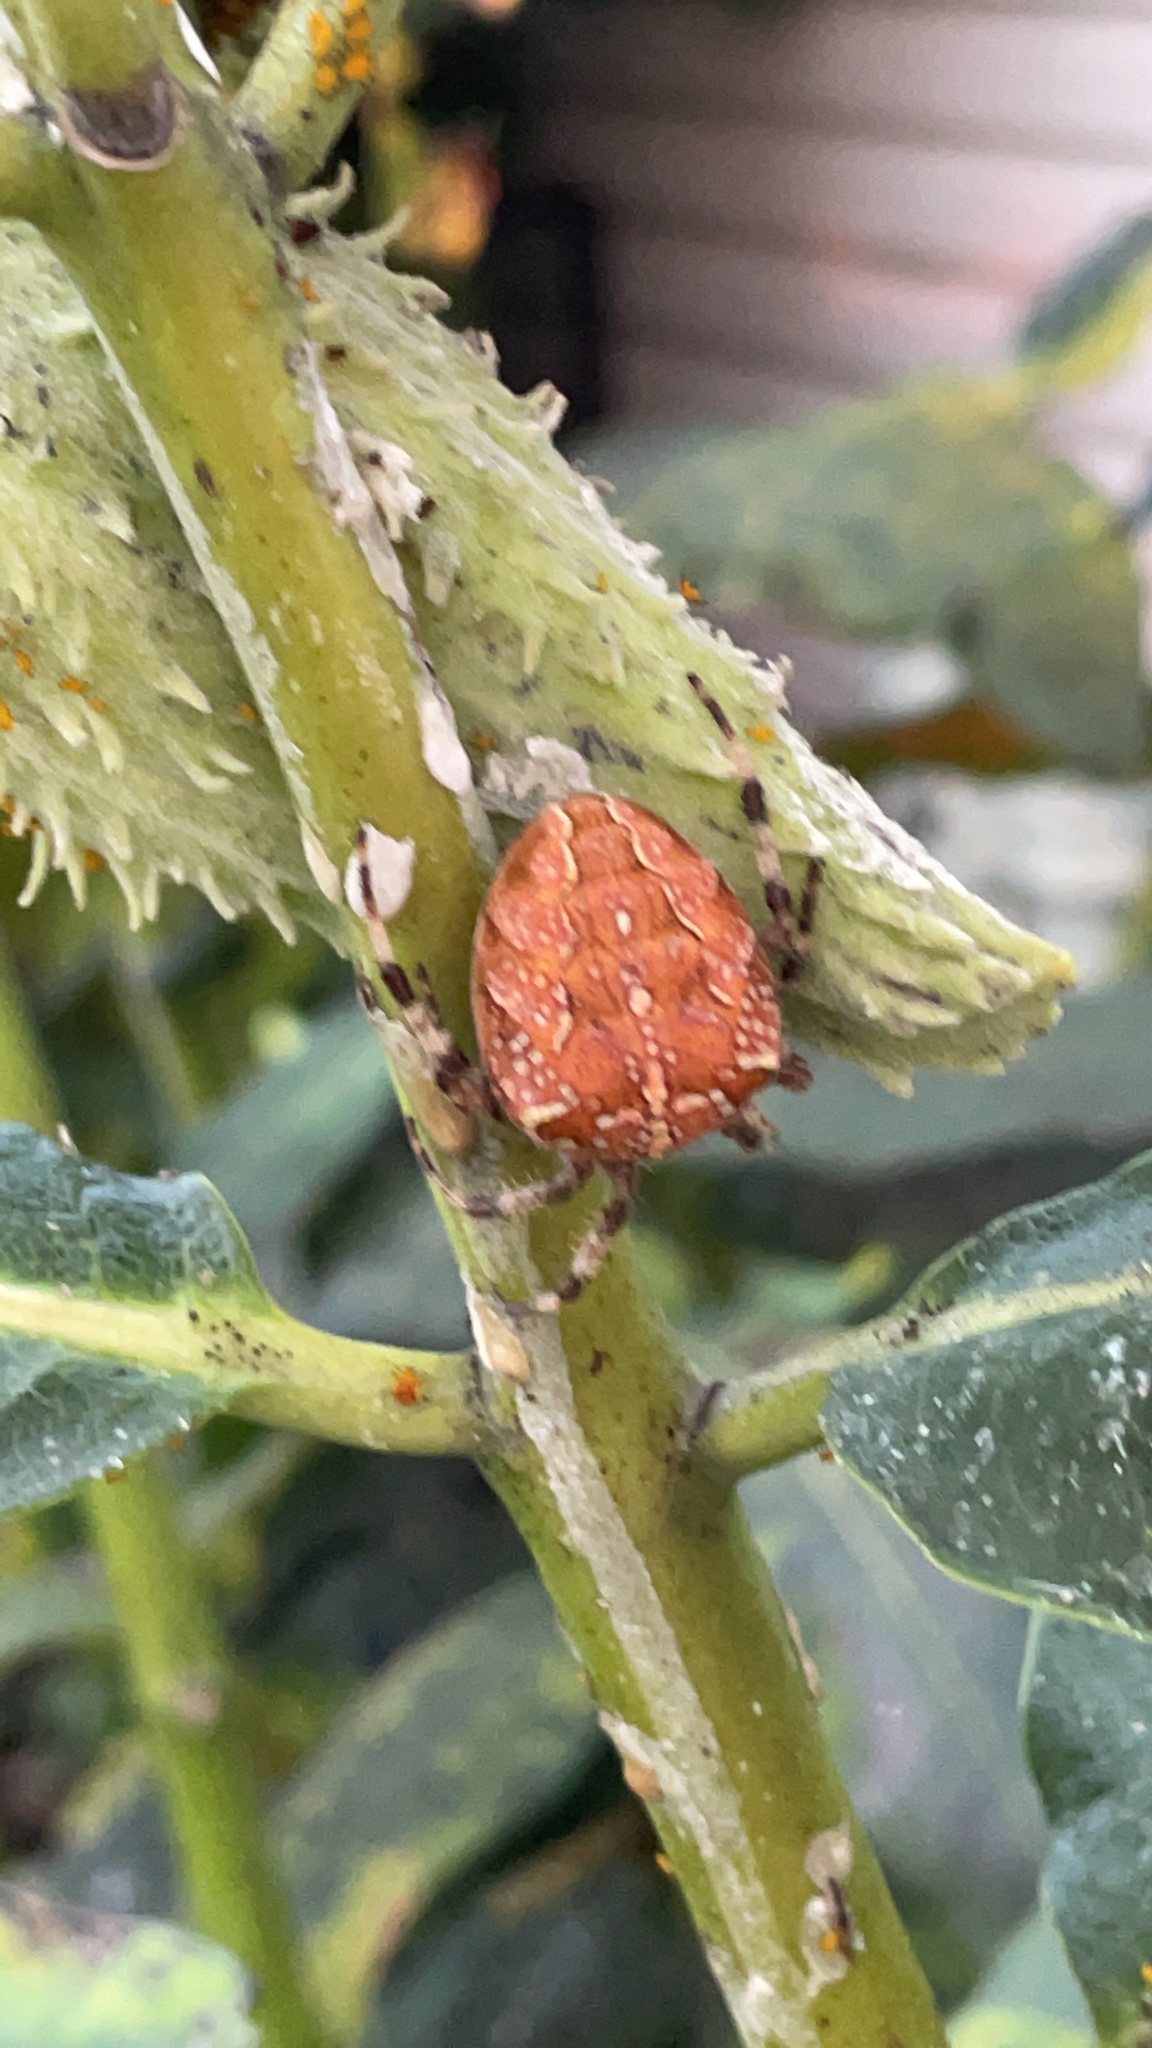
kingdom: Animalia
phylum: Arthropoda
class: Arachnida
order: Araneae
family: Araneidae
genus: Araneus
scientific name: Araneus diadematus
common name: Cross orbweaver
